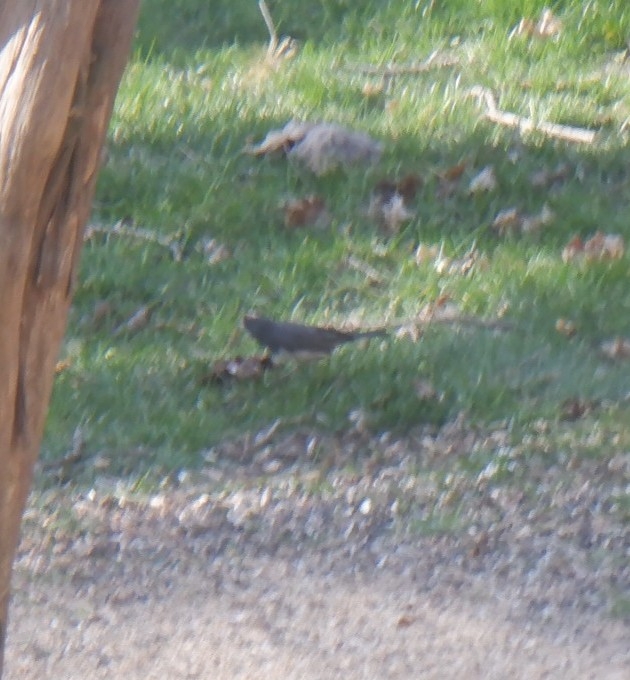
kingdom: Animalia
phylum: Chordata
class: Aves
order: Passeriformes
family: Passerellidae
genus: Junco
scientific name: Junco hyemalis
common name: Dark-eyed junco
